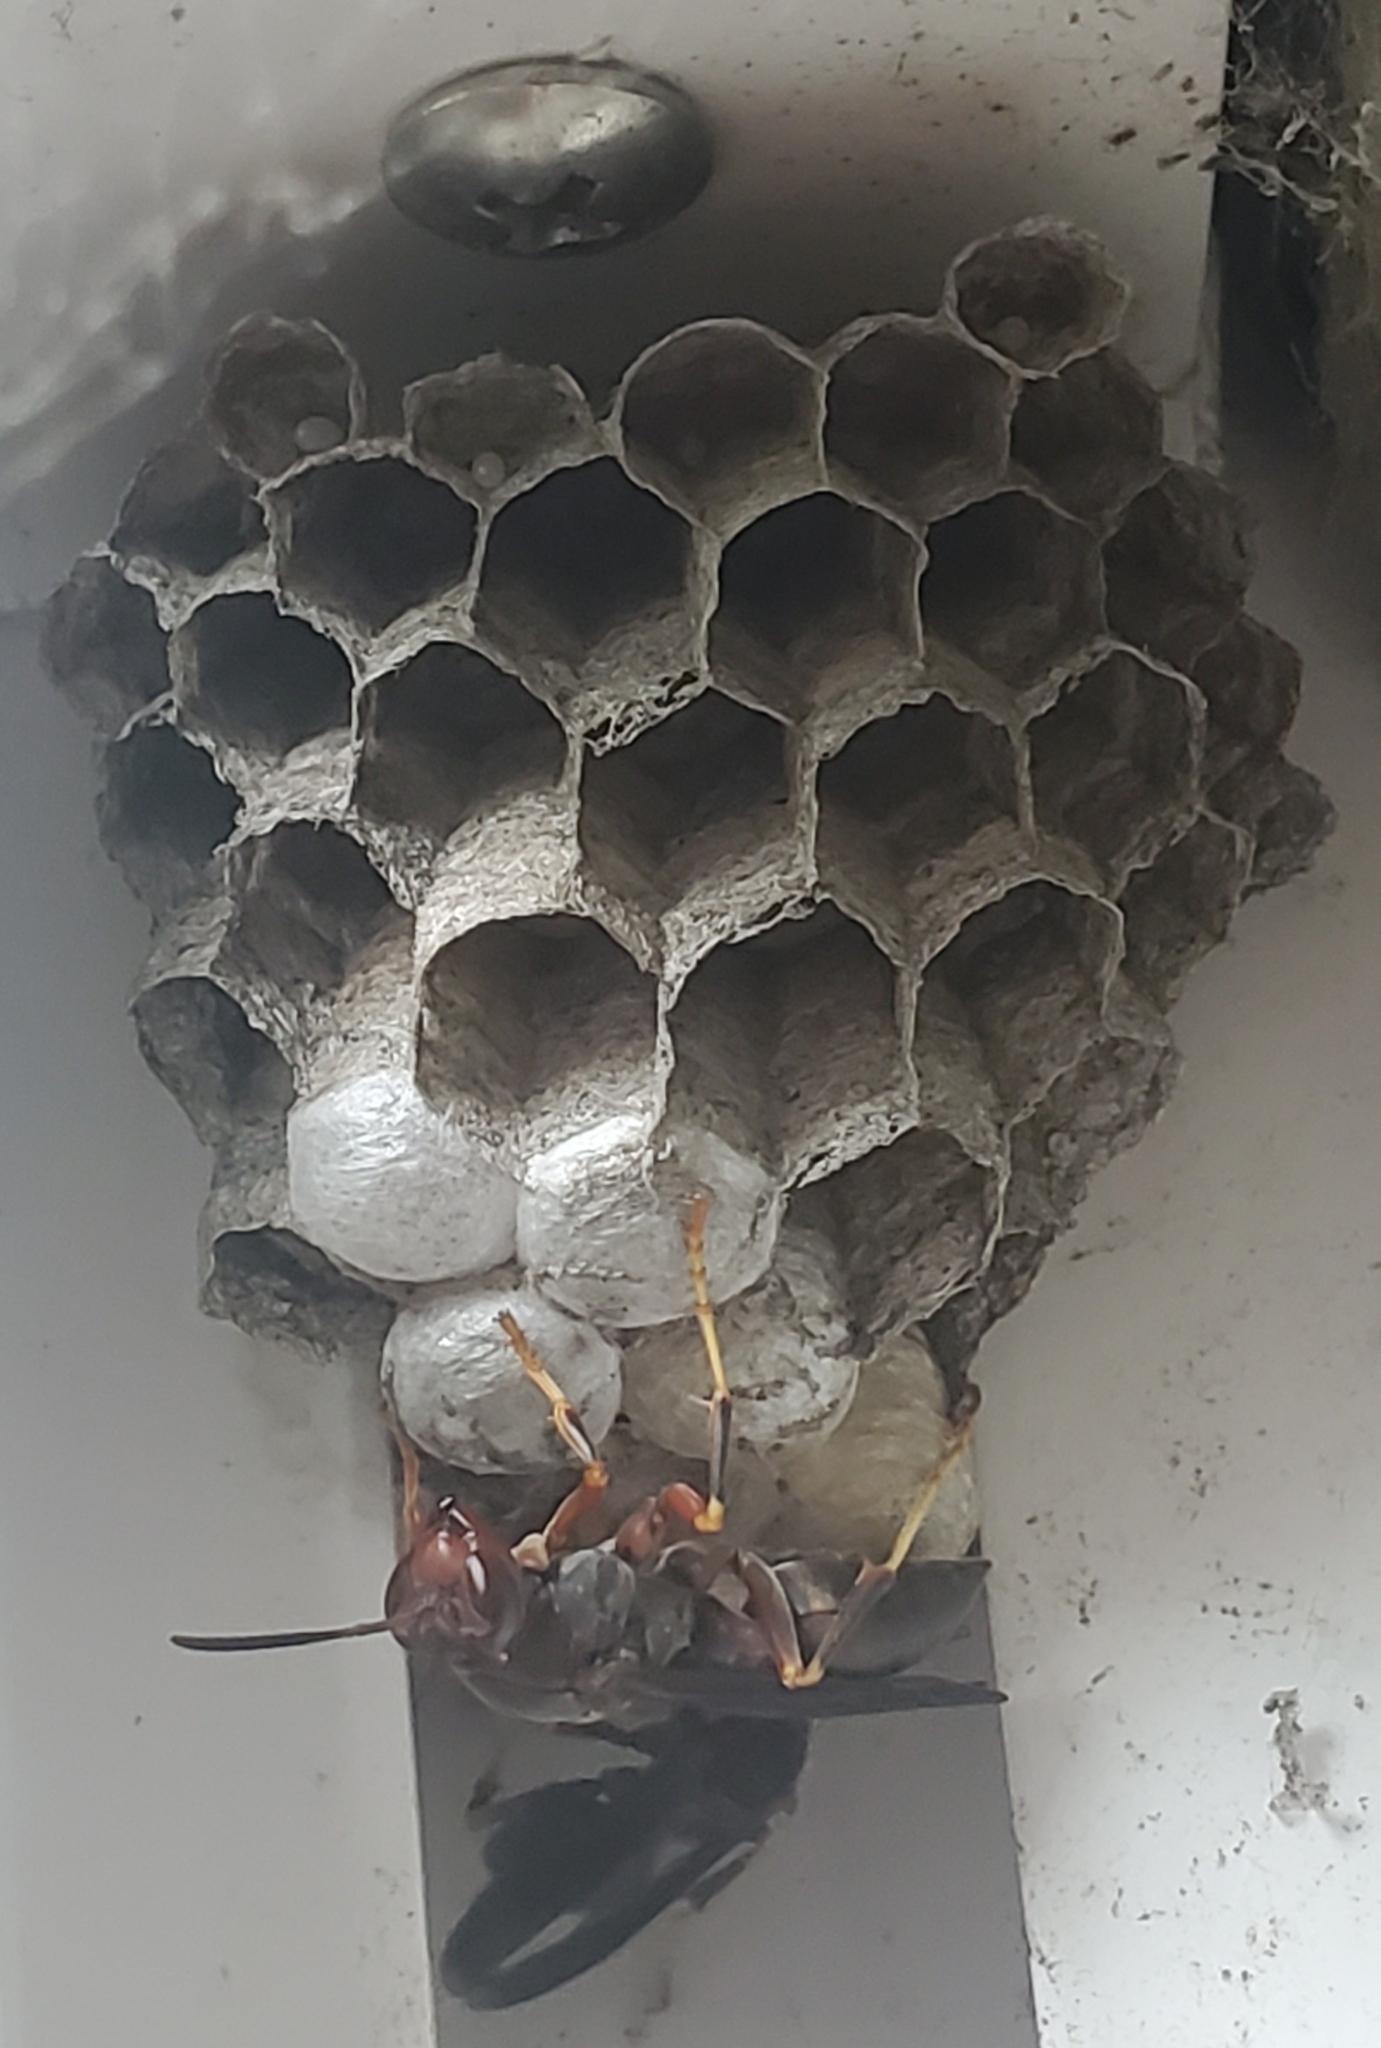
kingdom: Animalia
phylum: Arthropoda
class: Insecta
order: Hymenoptera
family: Eumenidae
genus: Polistes
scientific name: Polistes metricus
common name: Metric paper wasp
